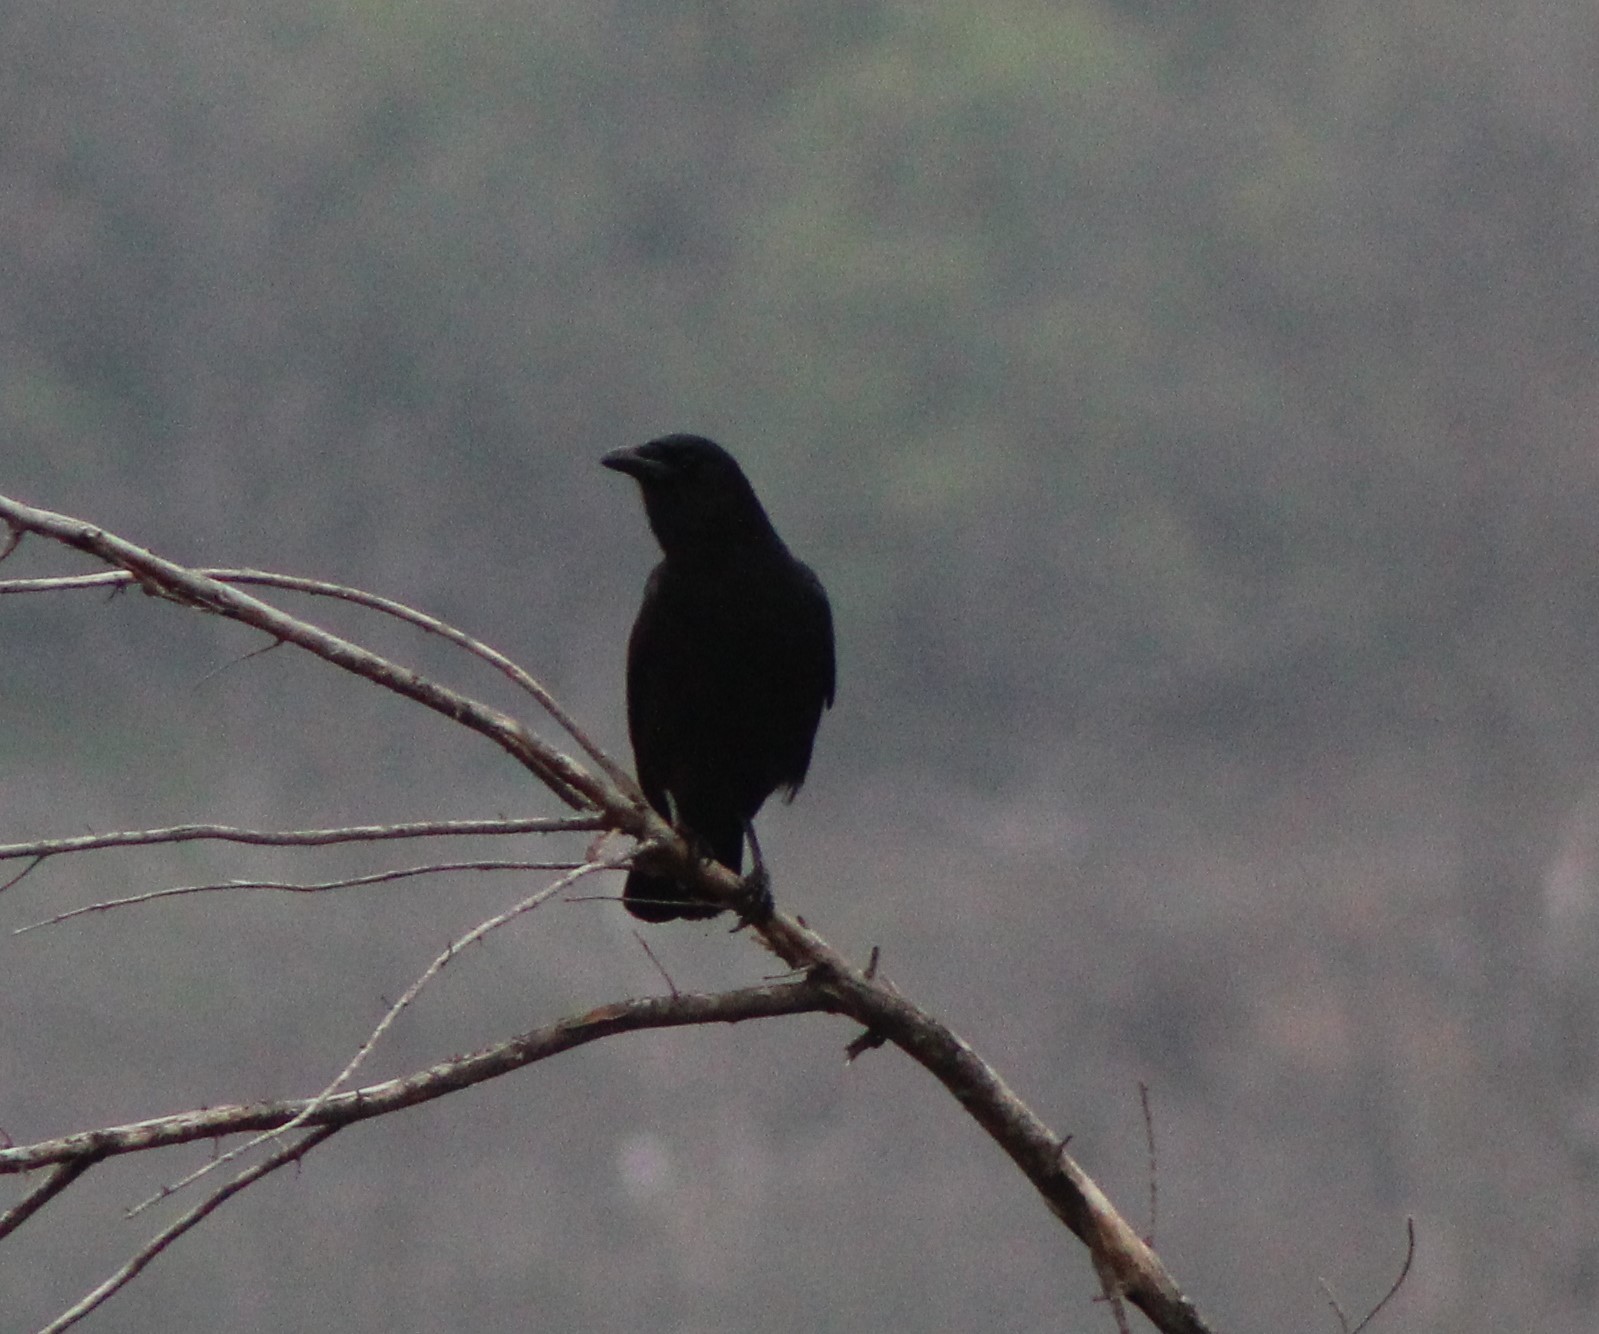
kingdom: Animalia
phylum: Chordata
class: Aves
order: Passeriformes
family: Corvidae
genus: Corvus
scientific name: Corvus brachyrhynchos
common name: American crow
